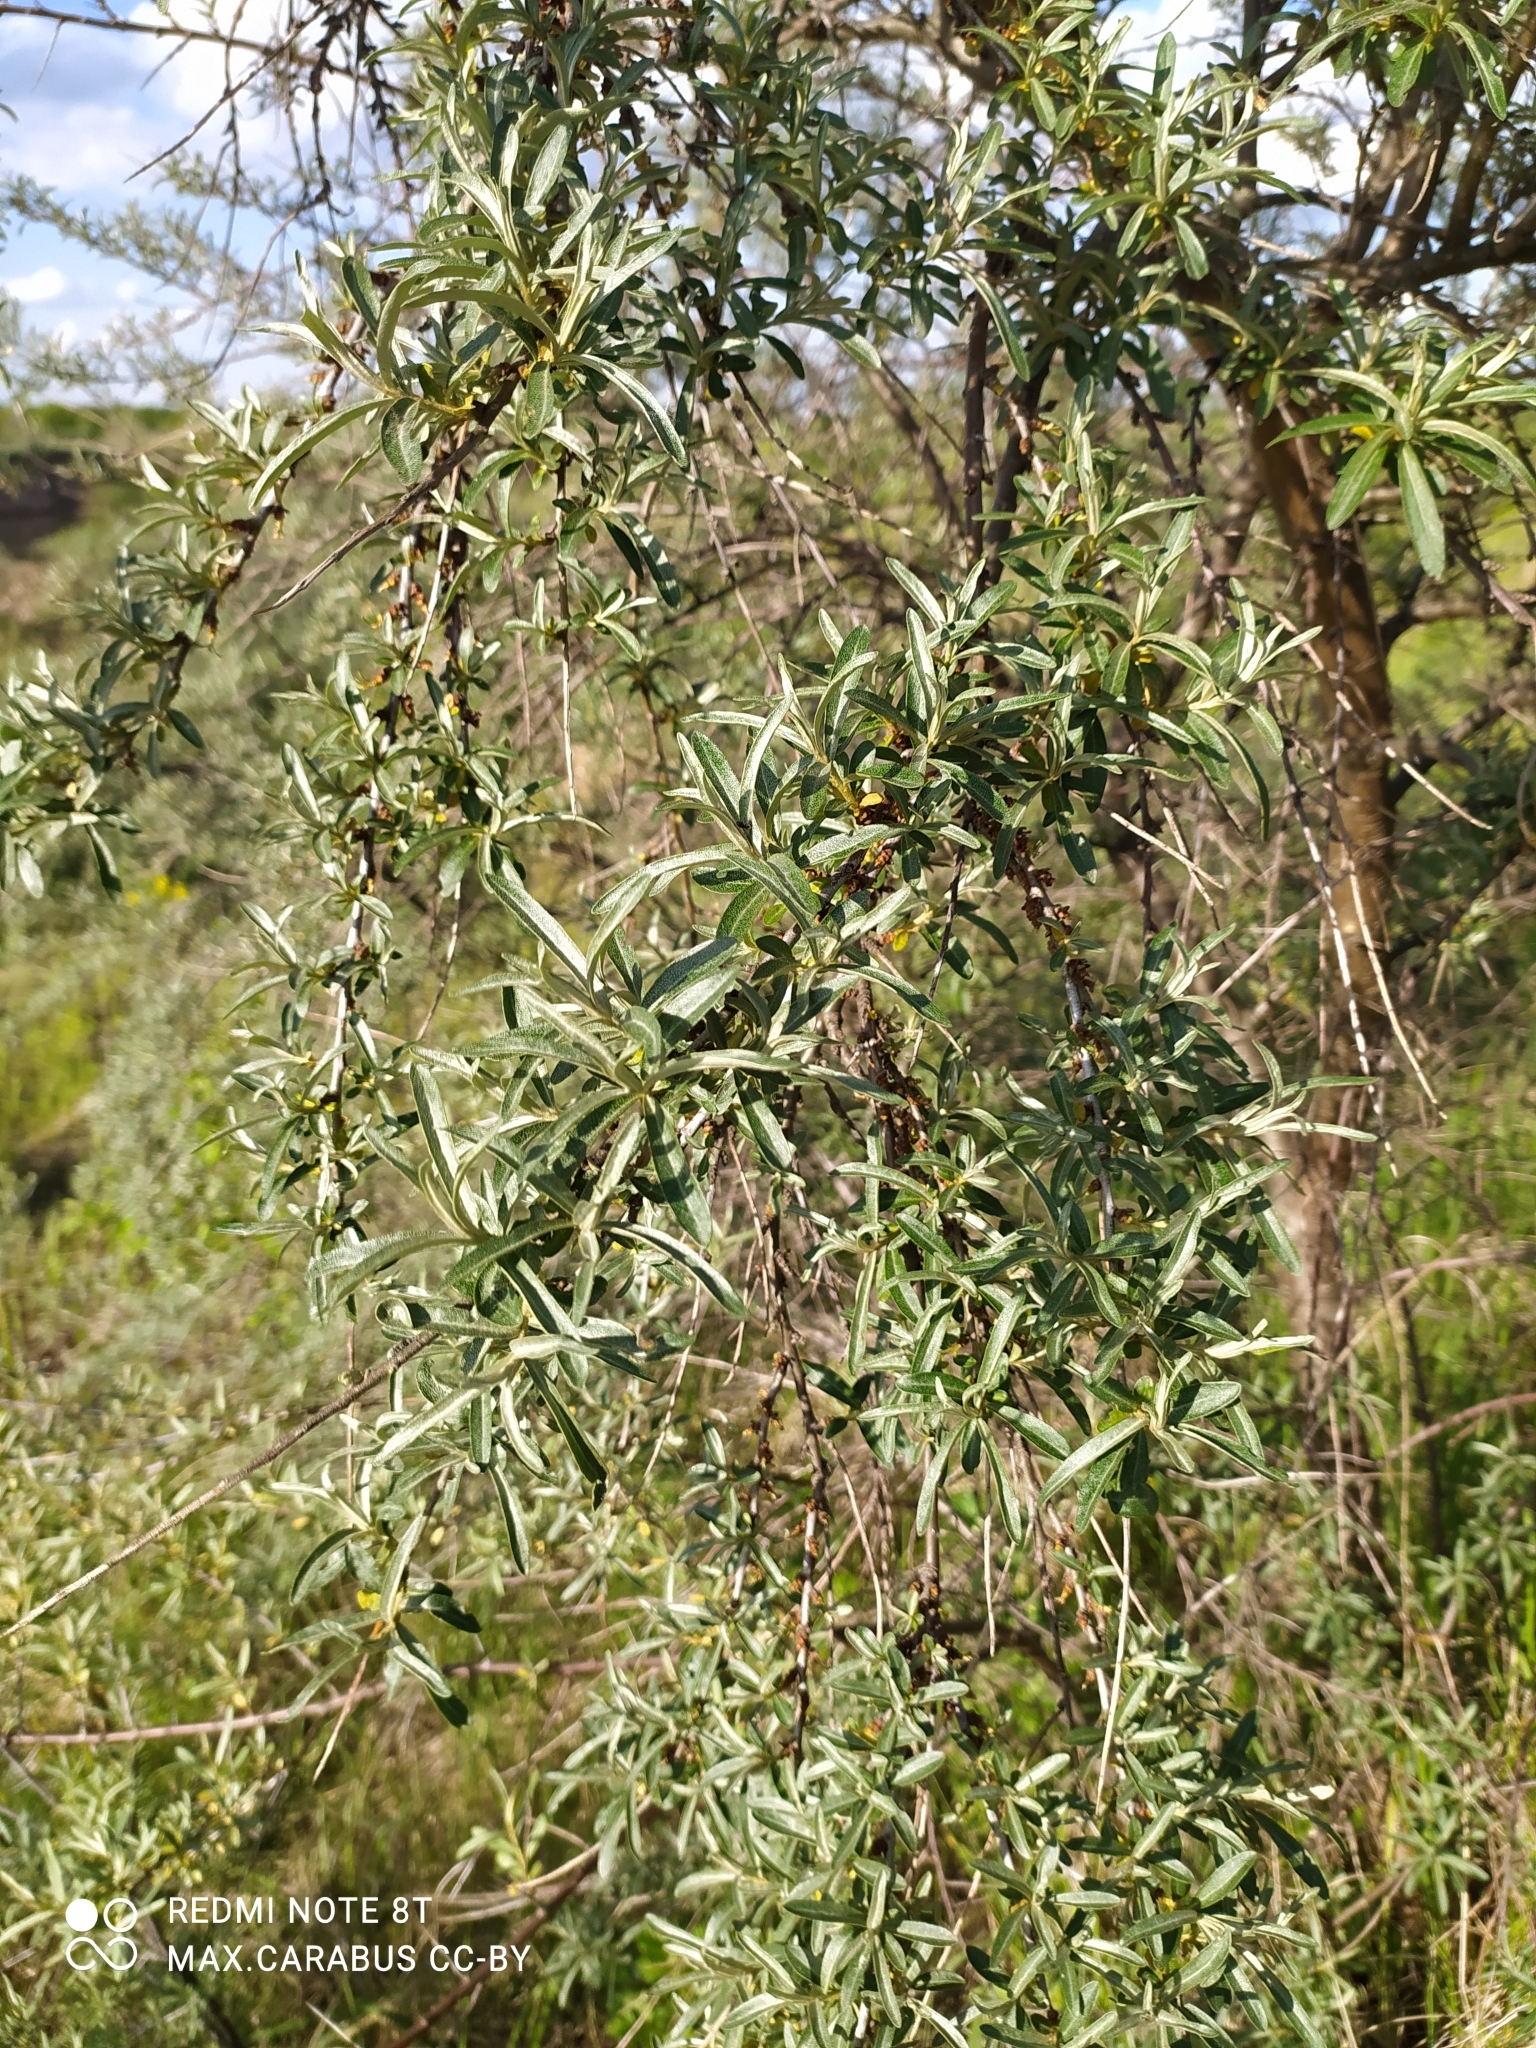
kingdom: Plantae
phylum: Tracheophyta
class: Magnoliopsida
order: Rosales
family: Elaeagnaceae
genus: Hippophae
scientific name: Hippophae rhamnoides
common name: Sea-buckthorn
